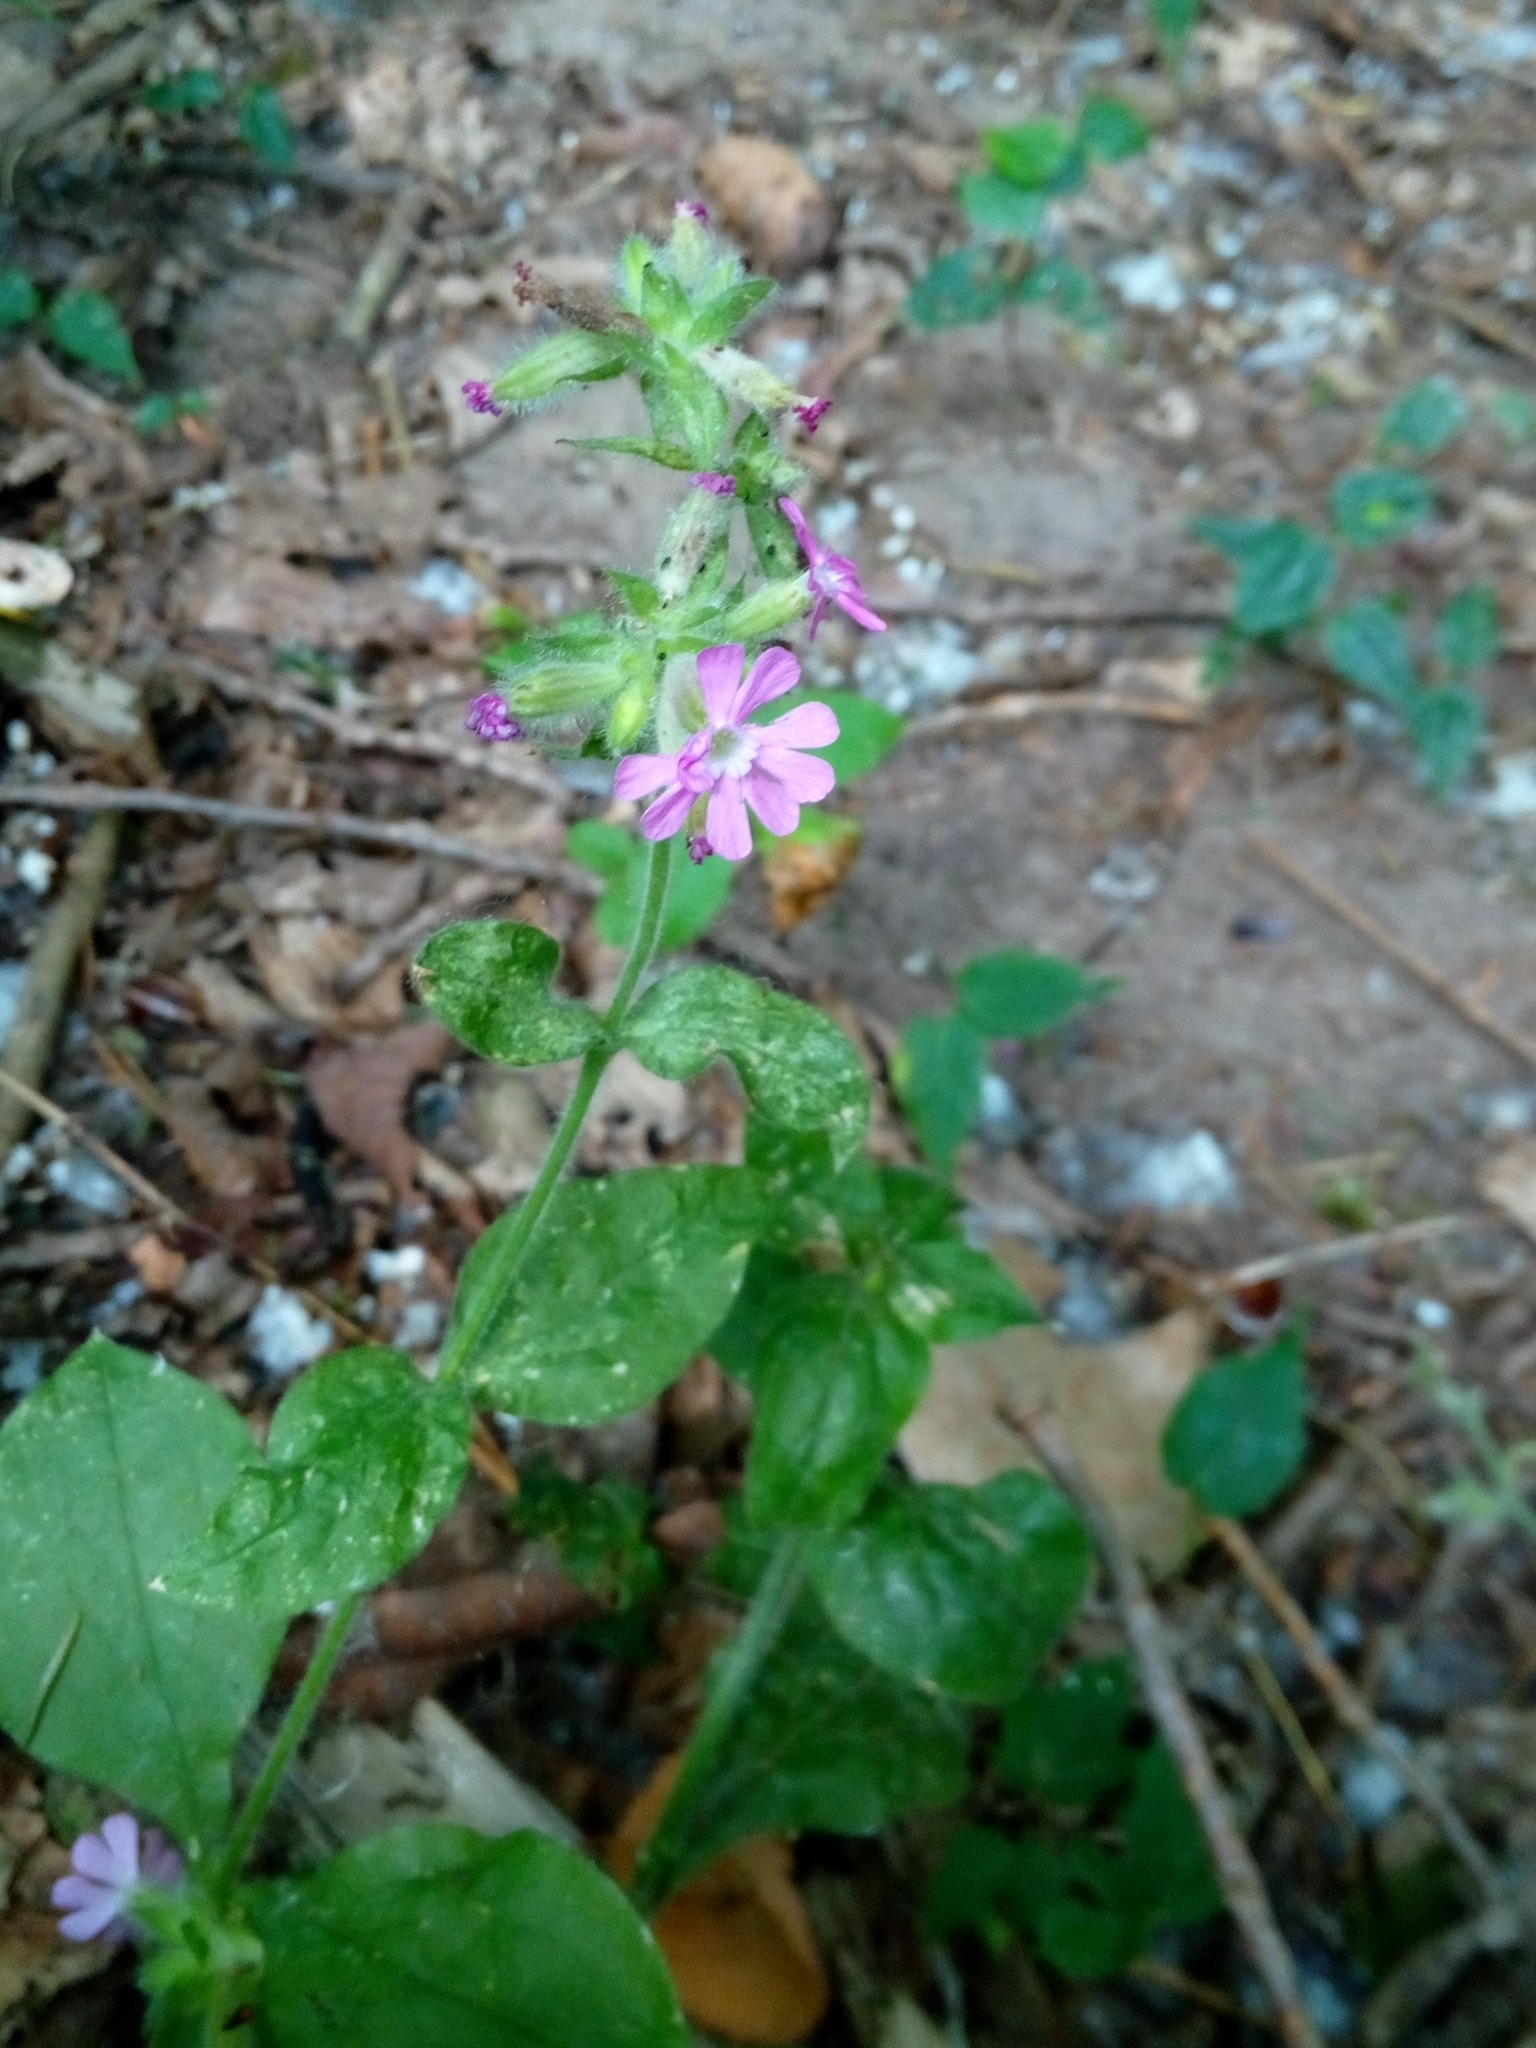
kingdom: Plantae
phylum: Tracheophyta
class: Magnoliopsida
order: Caryophyllales
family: Caryophyllaceae
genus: Silene
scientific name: Silene dioica
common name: Red campion
